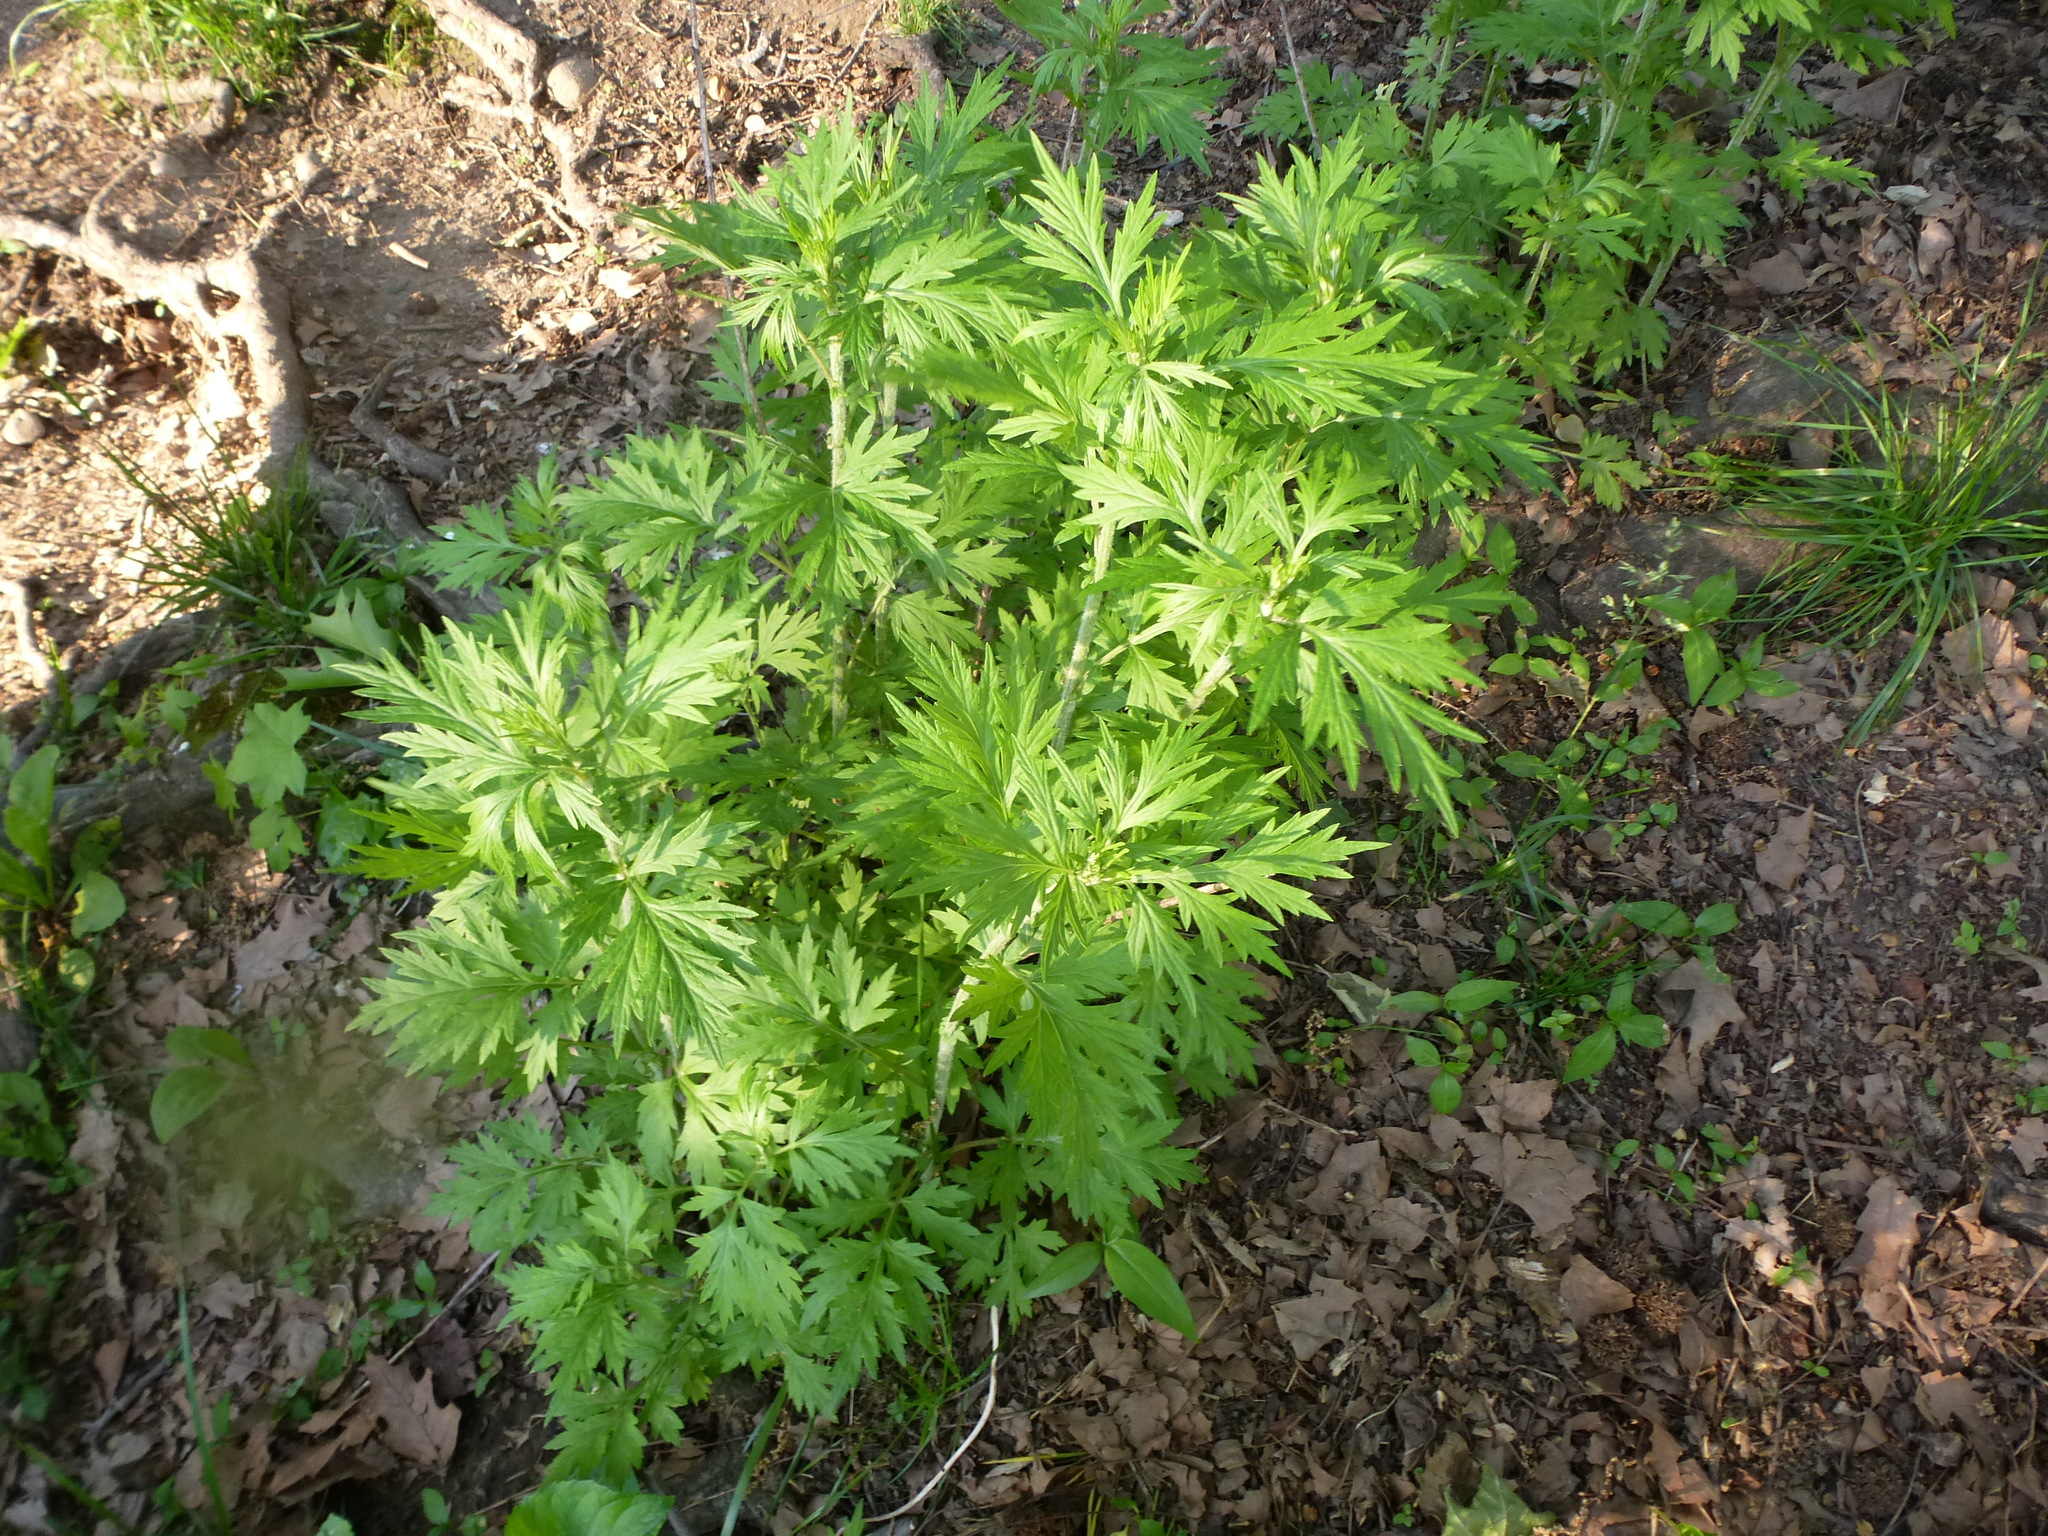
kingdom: Plantae
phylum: Tracheophyta
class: Magnoliopsida
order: Asterales
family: Asteraceae
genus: Artemisia
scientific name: Artemisia vulgaris
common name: Mugwort
